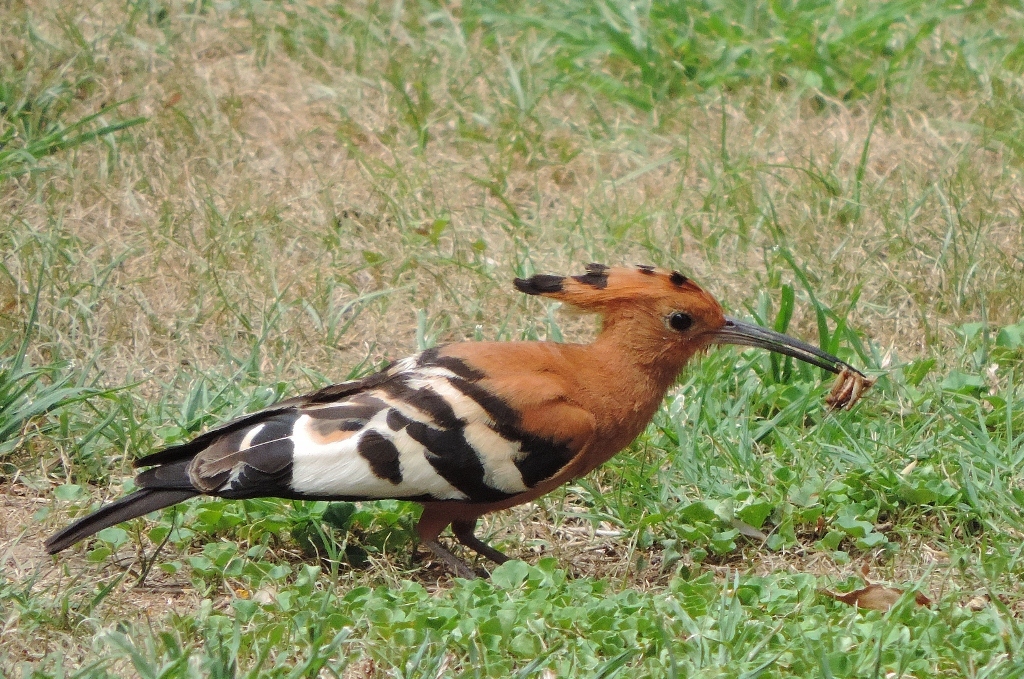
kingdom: Animalia
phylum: Chordata
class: Aves
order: Bucerotiformes
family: Upupidae
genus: Upupa
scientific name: Upupa africana
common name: African hoopoe
